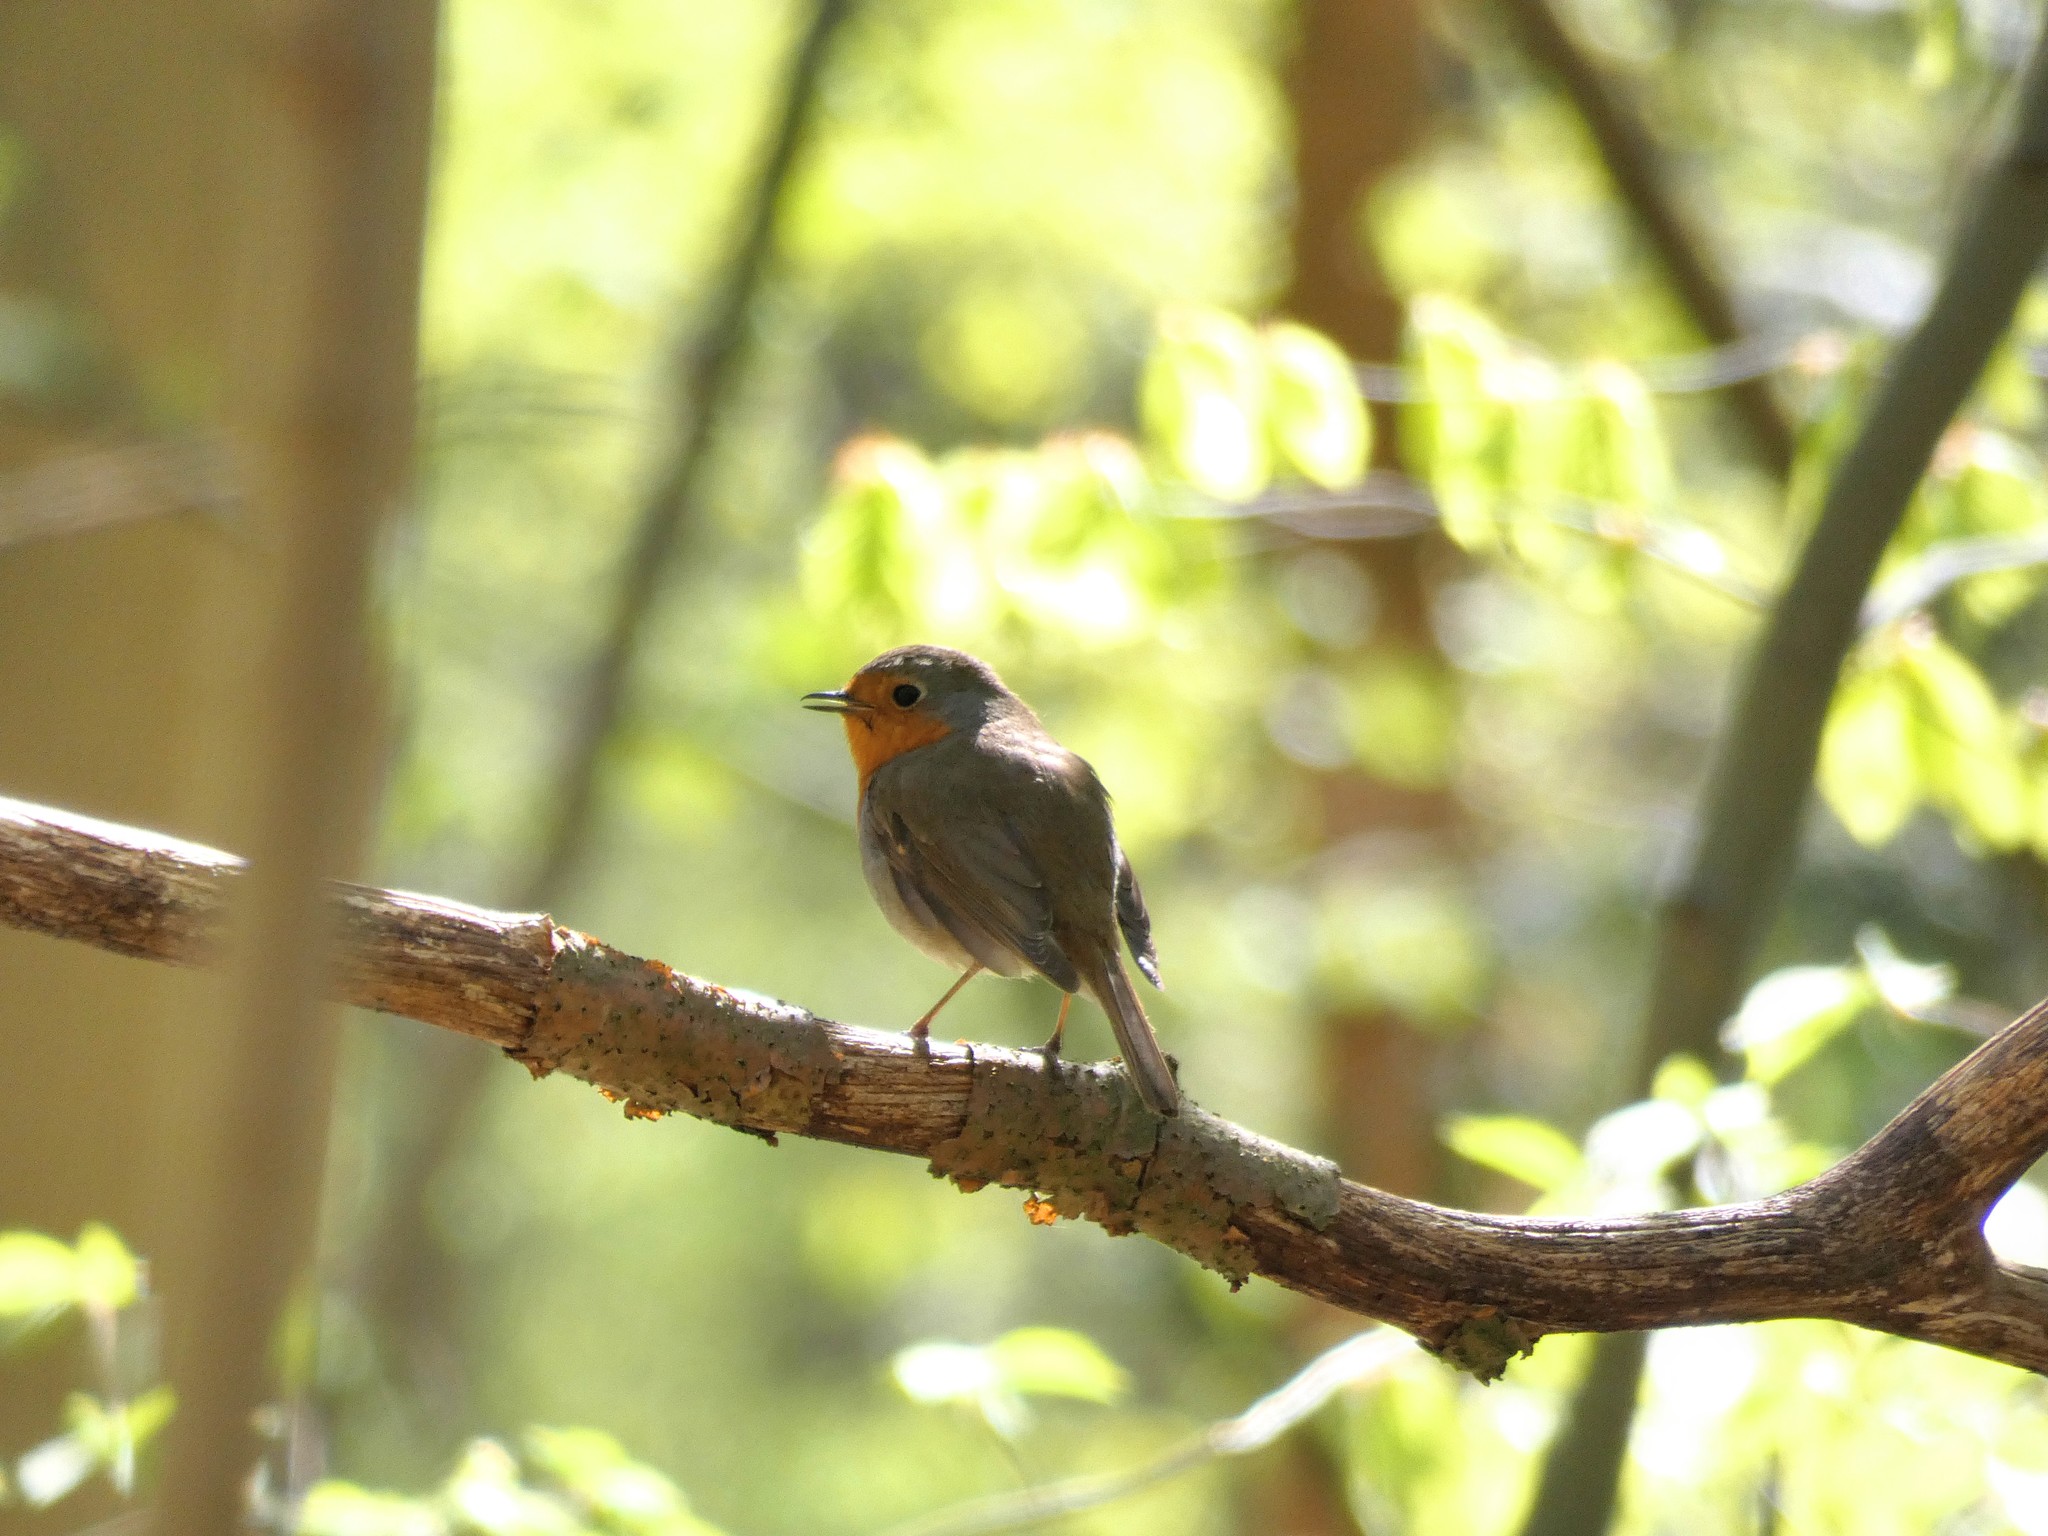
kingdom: Animalia
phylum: Chordata
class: Aves
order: Passeriformes
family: Muscicapidae
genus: Erithacus
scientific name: Erithacus rubecula
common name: European robin
